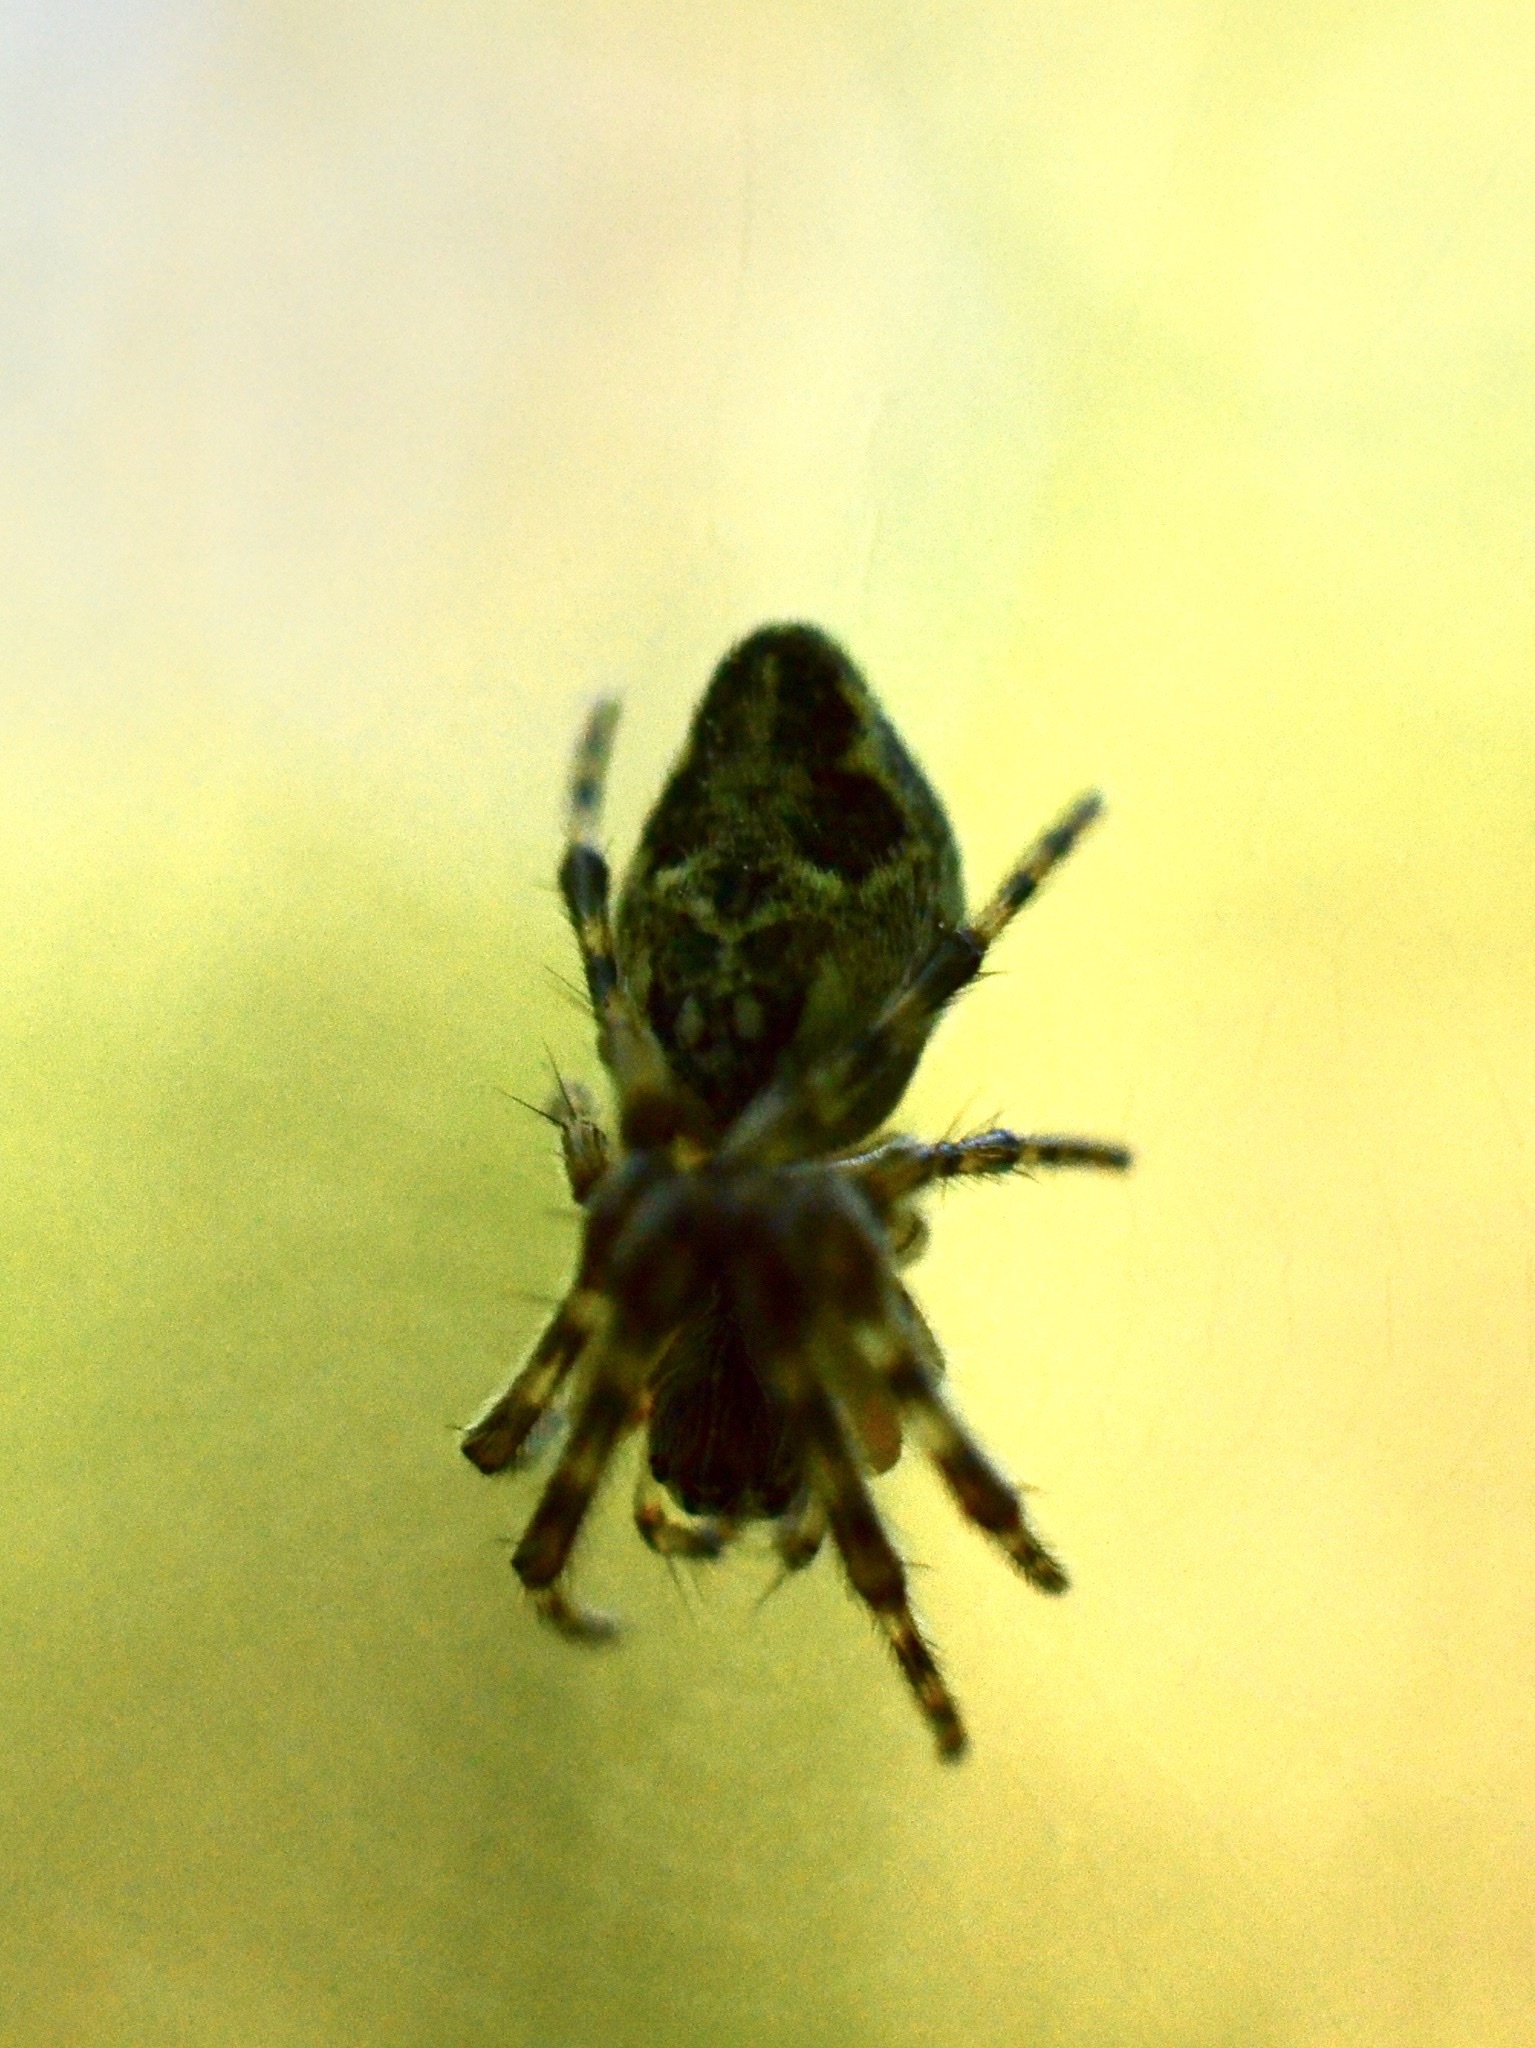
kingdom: Animalia
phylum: Arthropoda
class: Arachnida
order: Araneae
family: Araneidae
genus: Cyclosa
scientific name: Cyclosa
